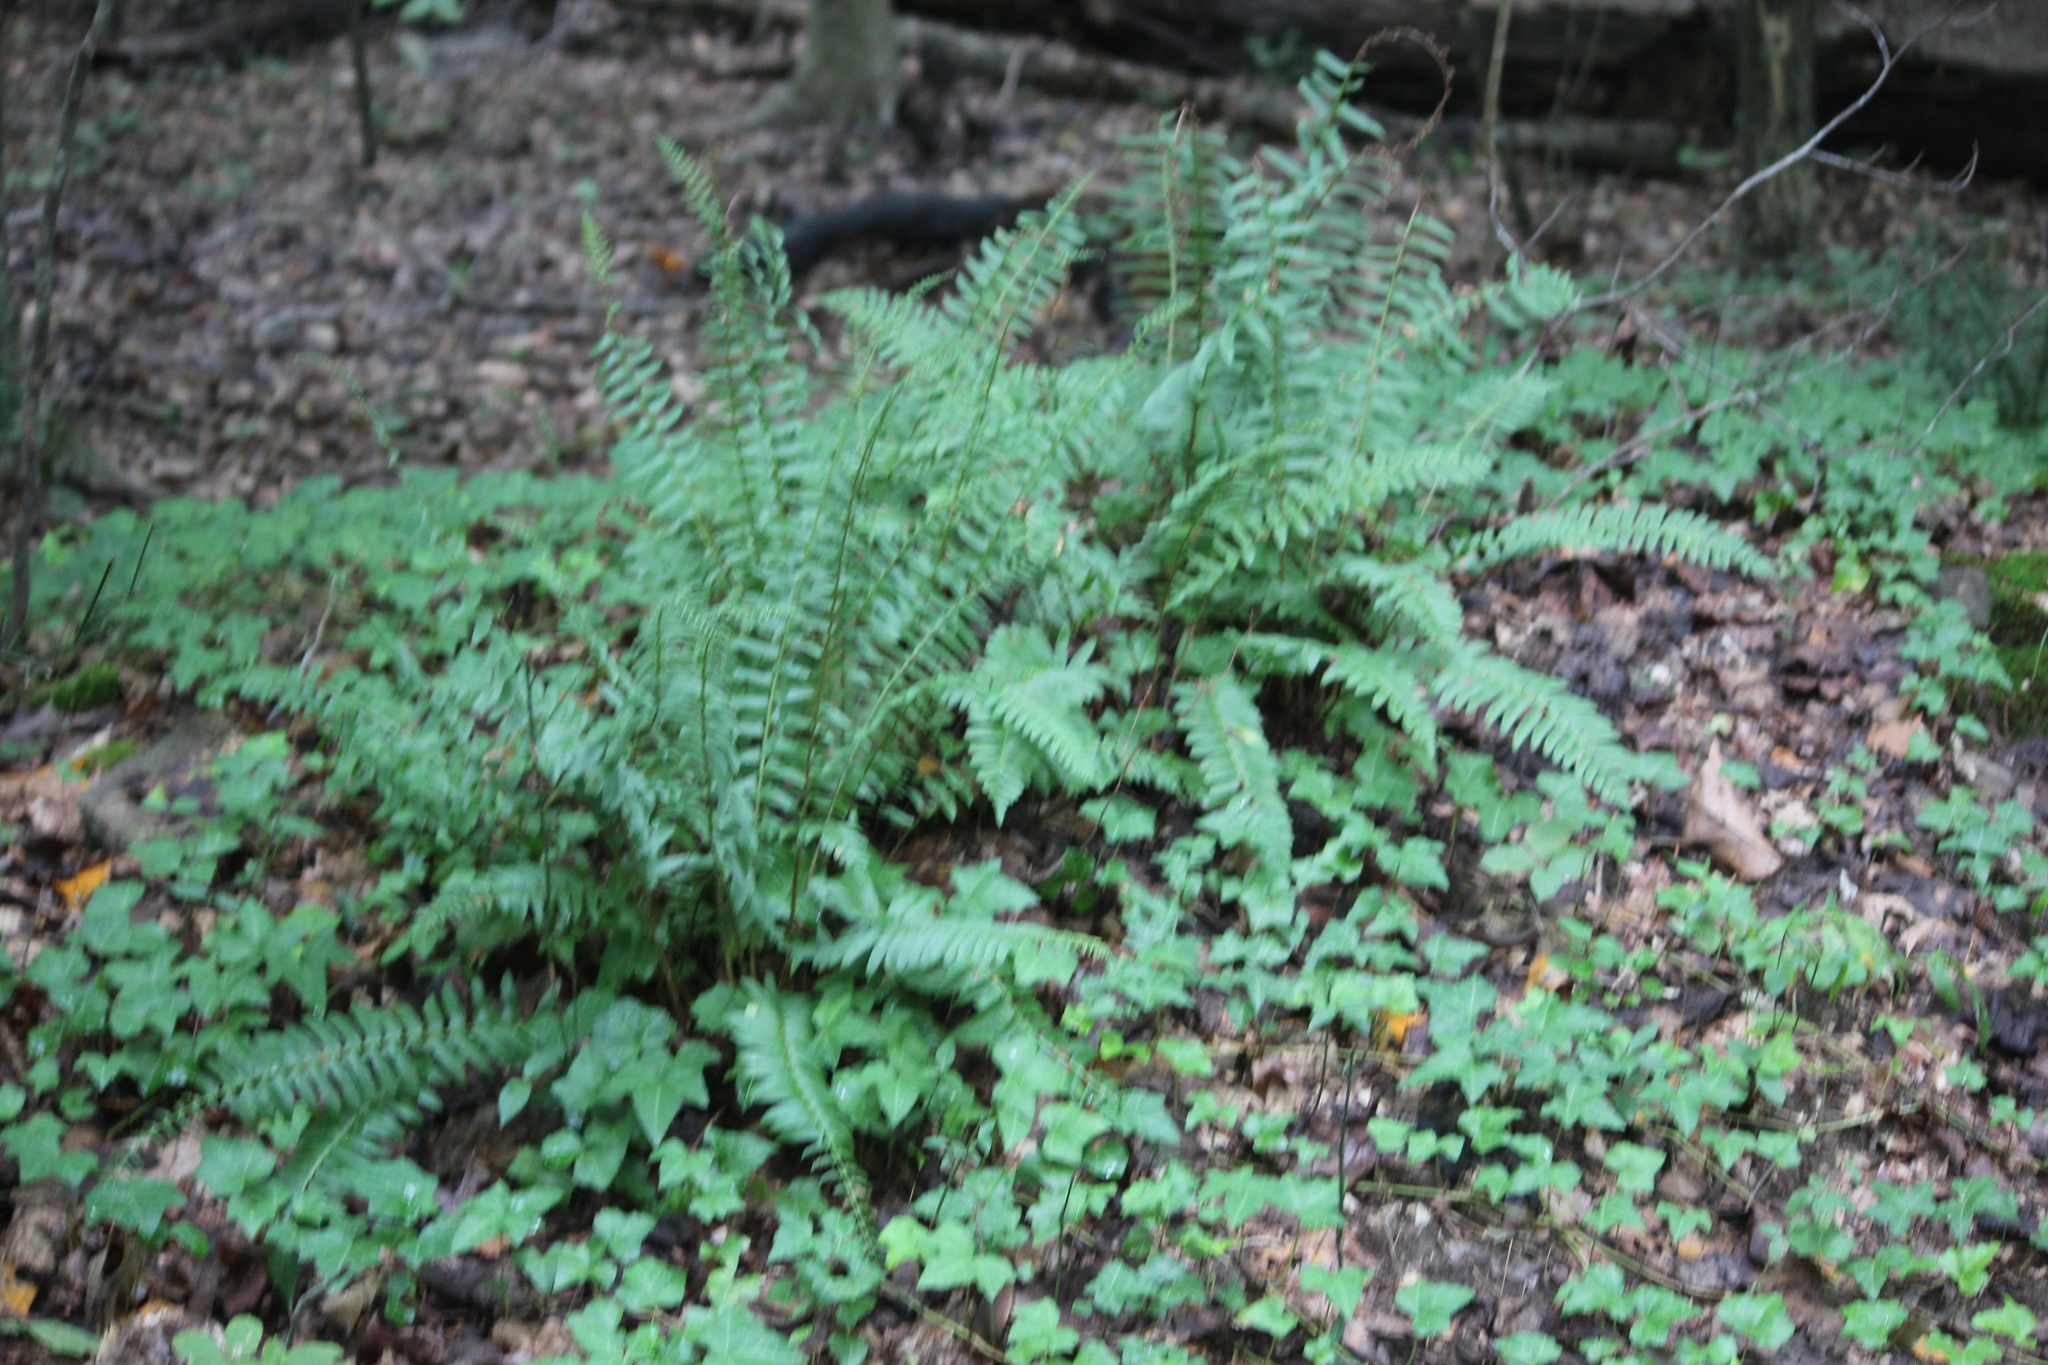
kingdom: Plantae
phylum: Tracheophyta
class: Polypodiopsida
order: Polypodiales
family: Dryopteridaceae
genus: Polystichum
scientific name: Polystichum acrostichoides
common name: Christmas fern
